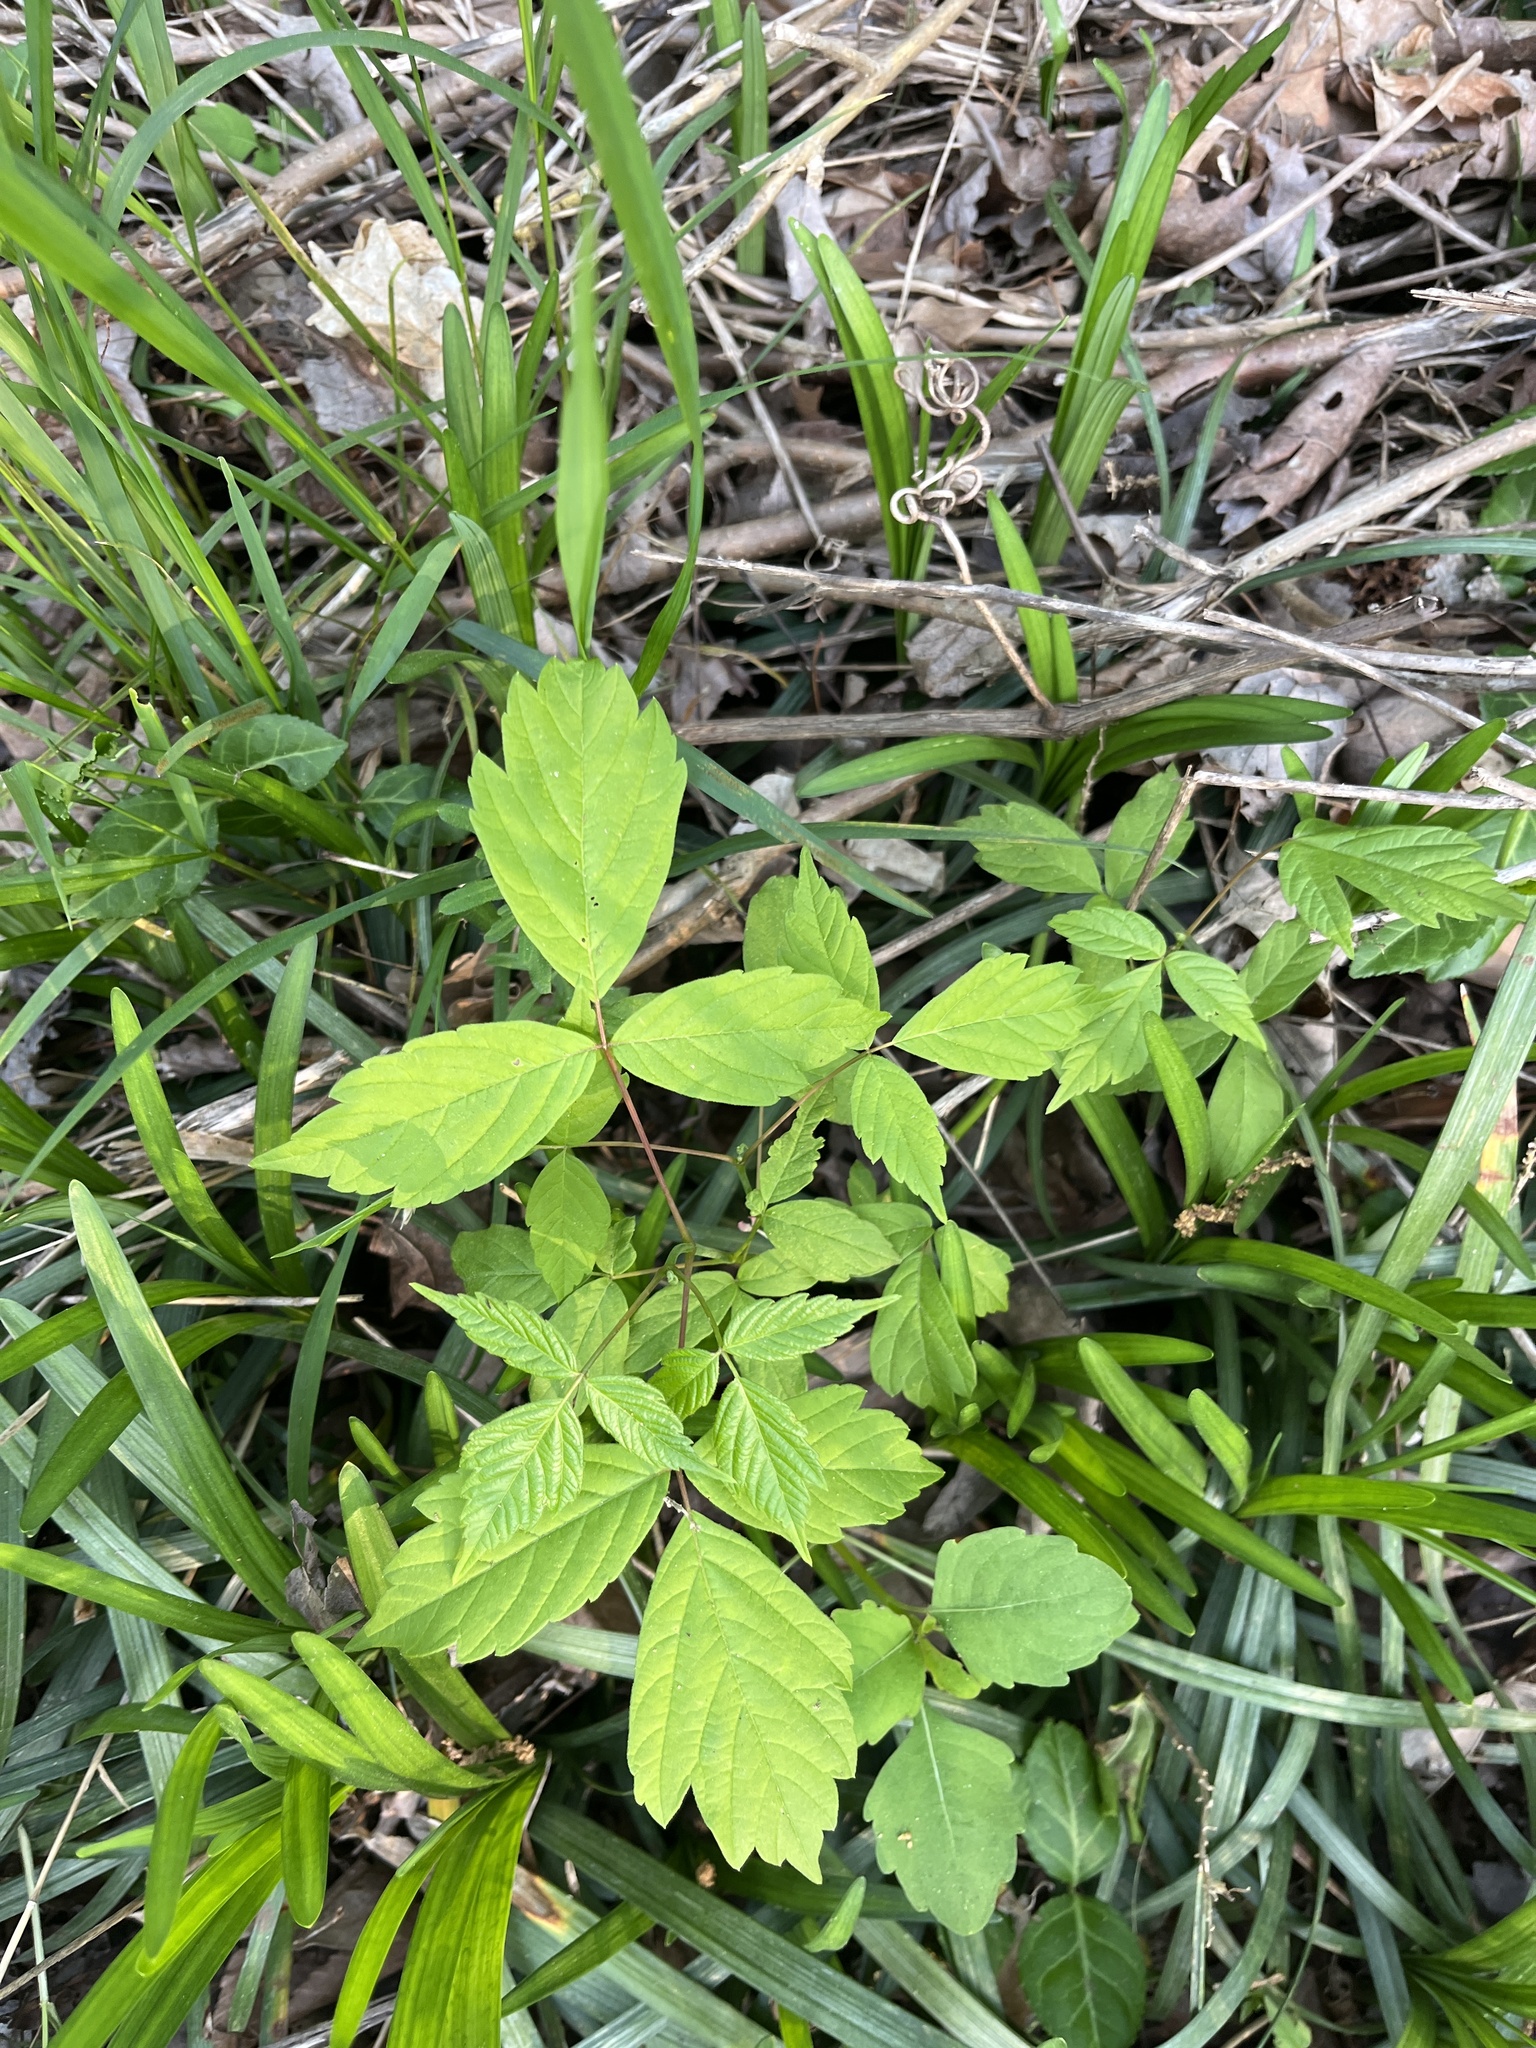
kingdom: Plantae
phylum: Tracheophyta
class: Magnoliopsida
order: Sapindales
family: Sapindaceae
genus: Acer
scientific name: Acer negundo
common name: Ashleaf maple
